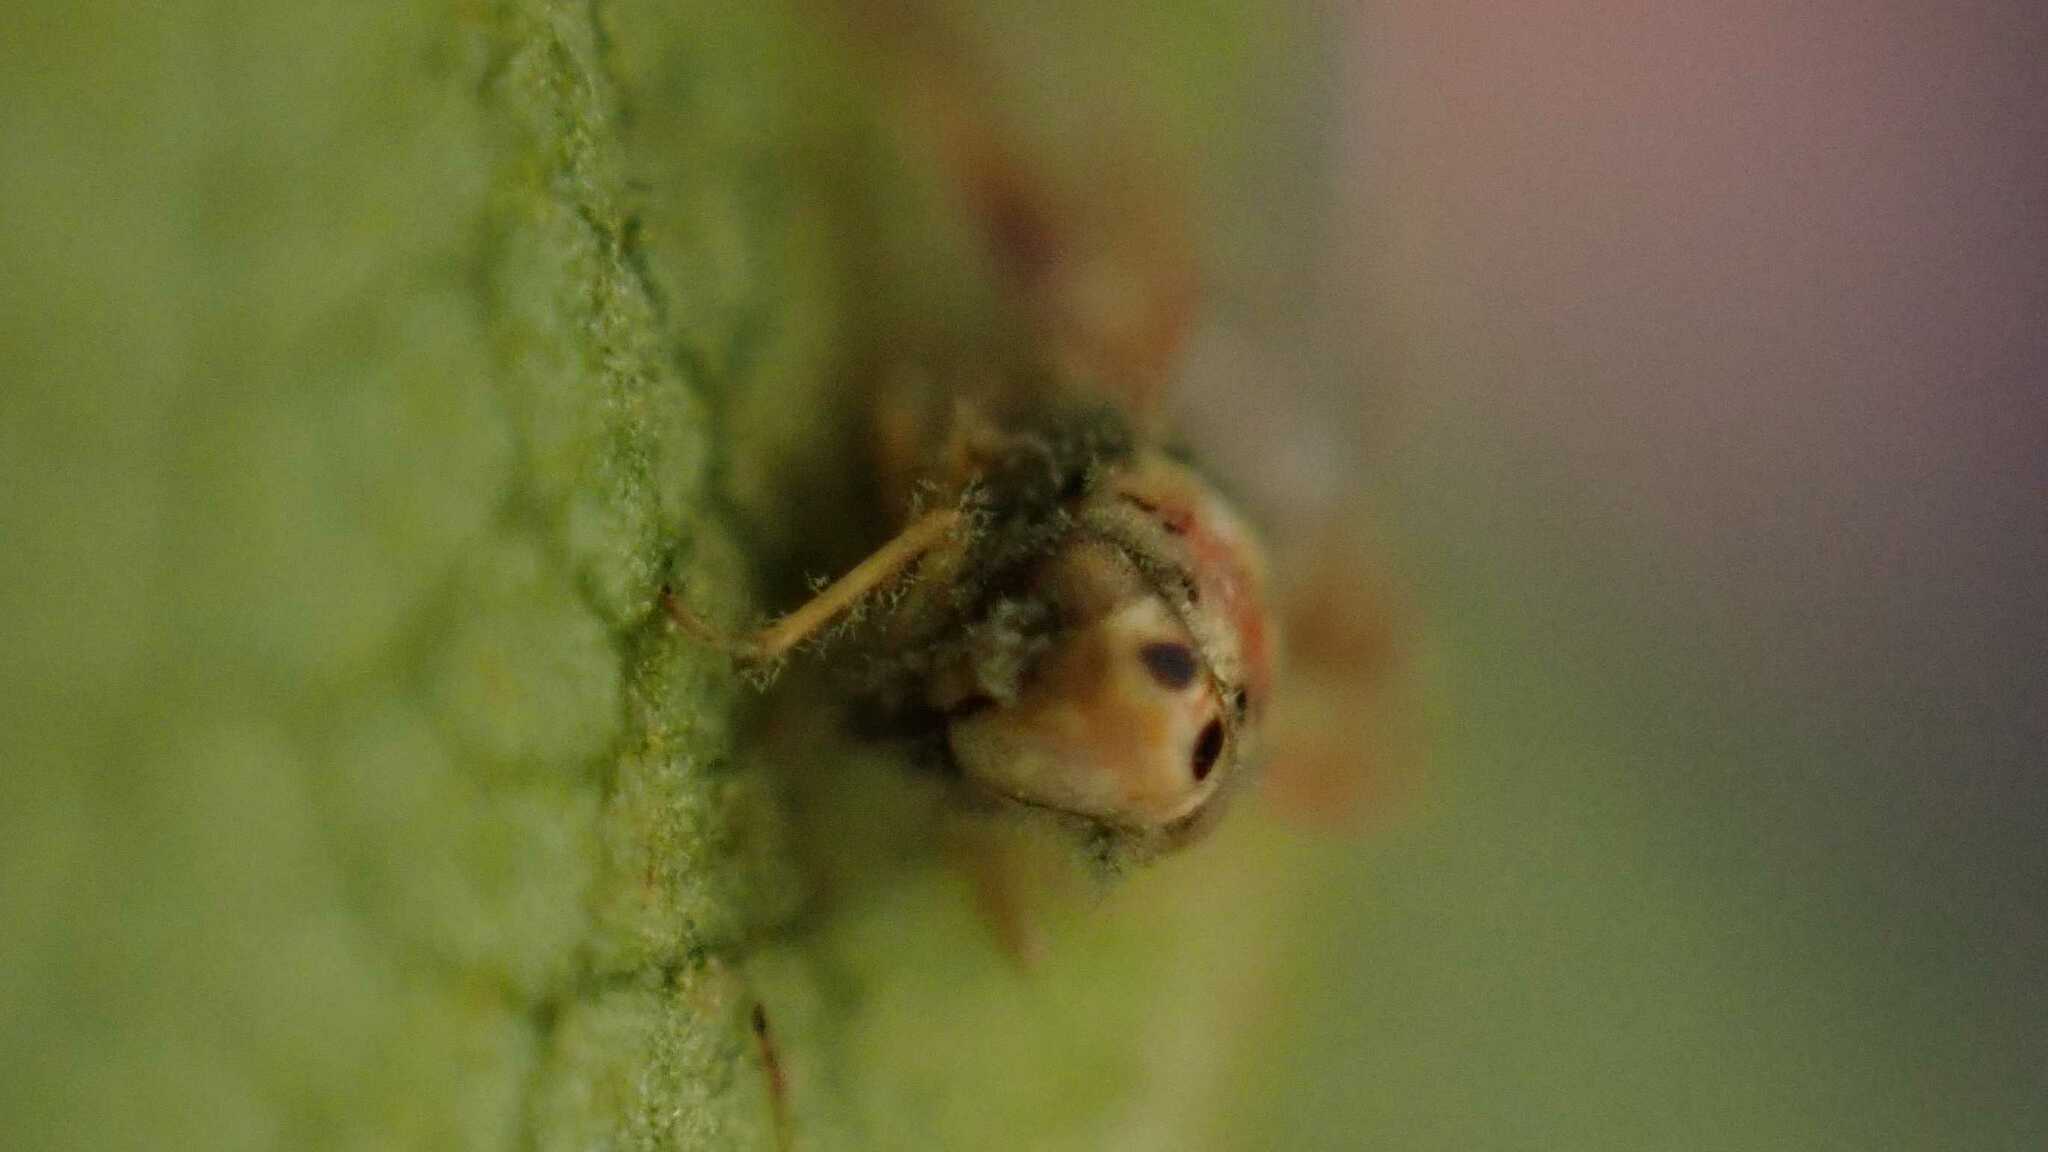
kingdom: Animalia
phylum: Arthropoda
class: Insecta
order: Hemiptera
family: Cicadellidae
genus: Arboridia
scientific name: Arboridia
